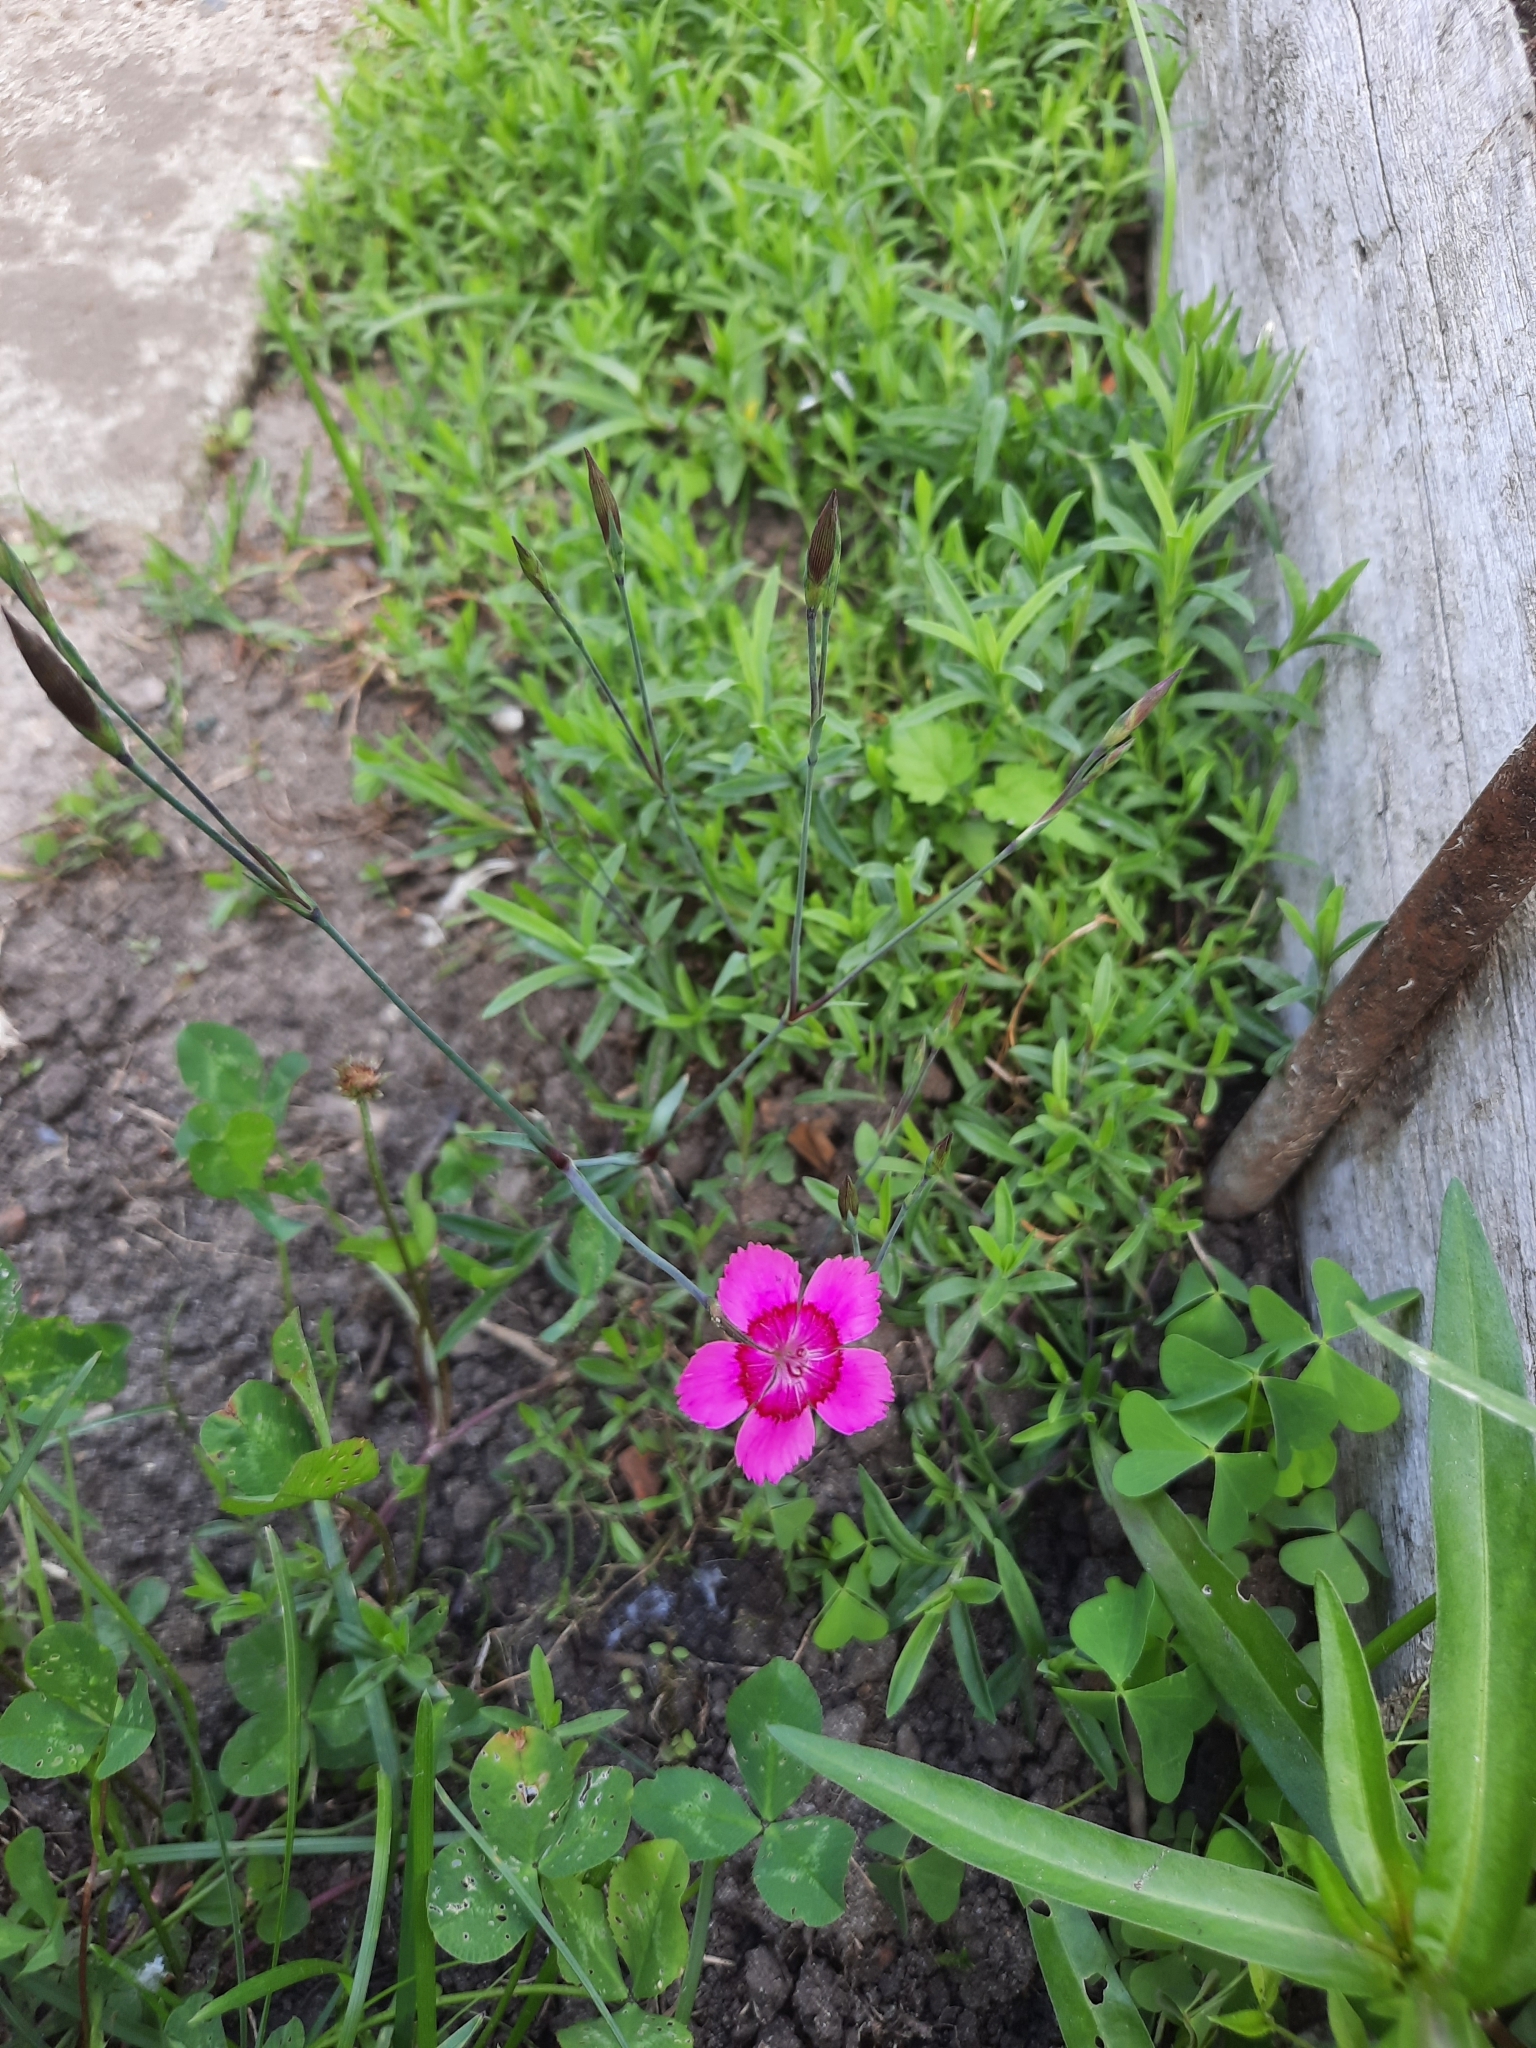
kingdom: Plantae
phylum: Tracheophyta
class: Magnoliopsida
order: Caryophyllales
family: Caryophyllaceae
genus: Dianthus
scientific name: Dianthus deltoides
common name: Maiden pink
